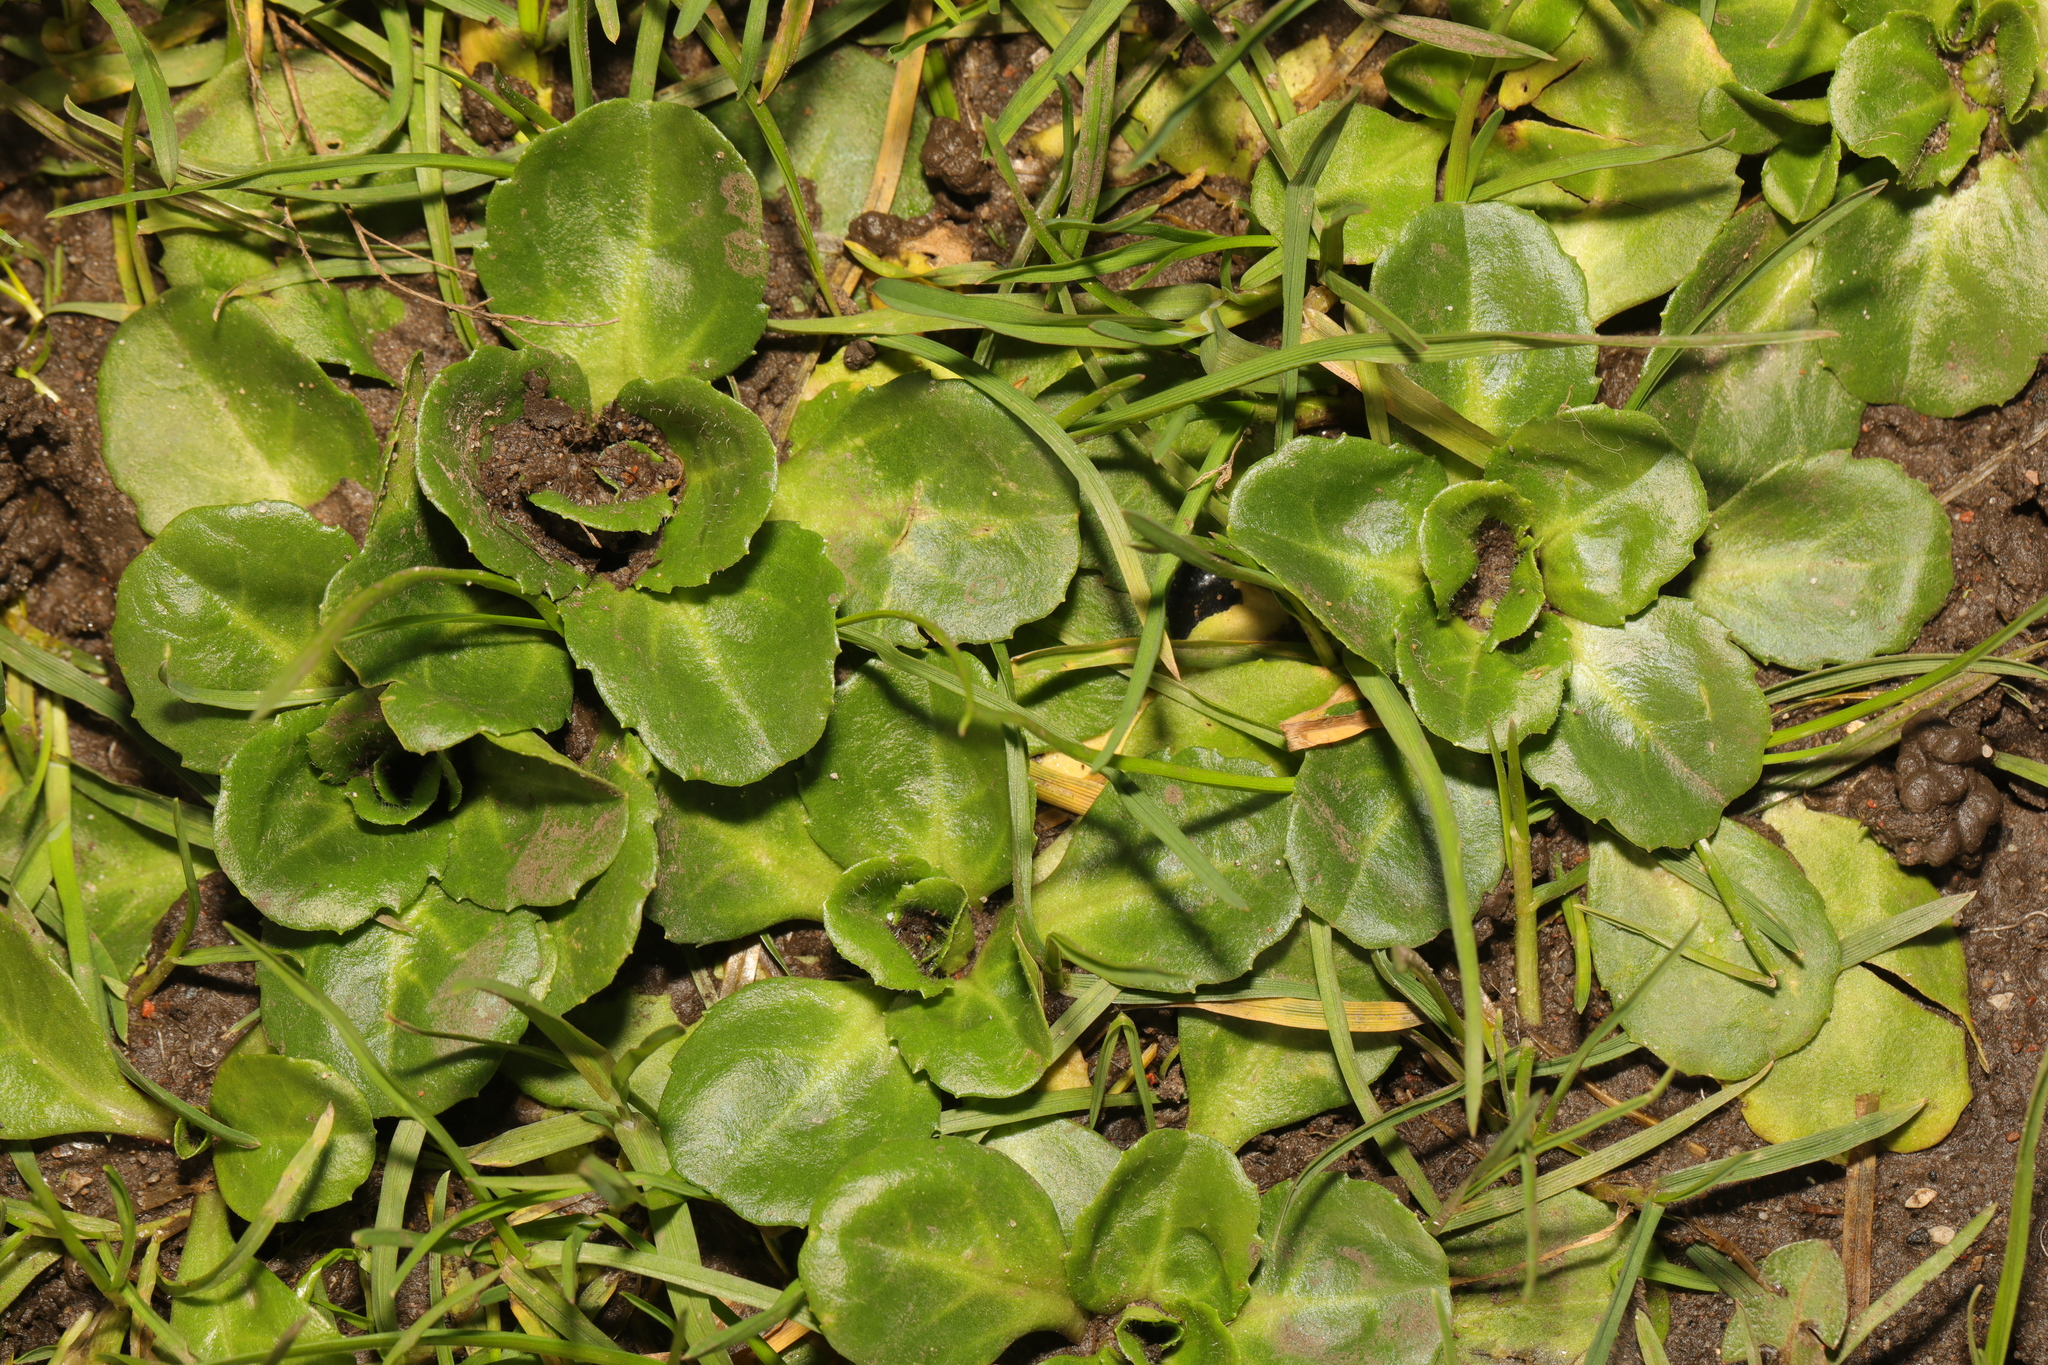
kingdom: Plantae
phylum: Tracheophyta
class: Magnoliopsida
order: Asterales
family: Asteraceae
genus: Bellis
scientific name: Bellis perennis
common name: Lawndaisy
